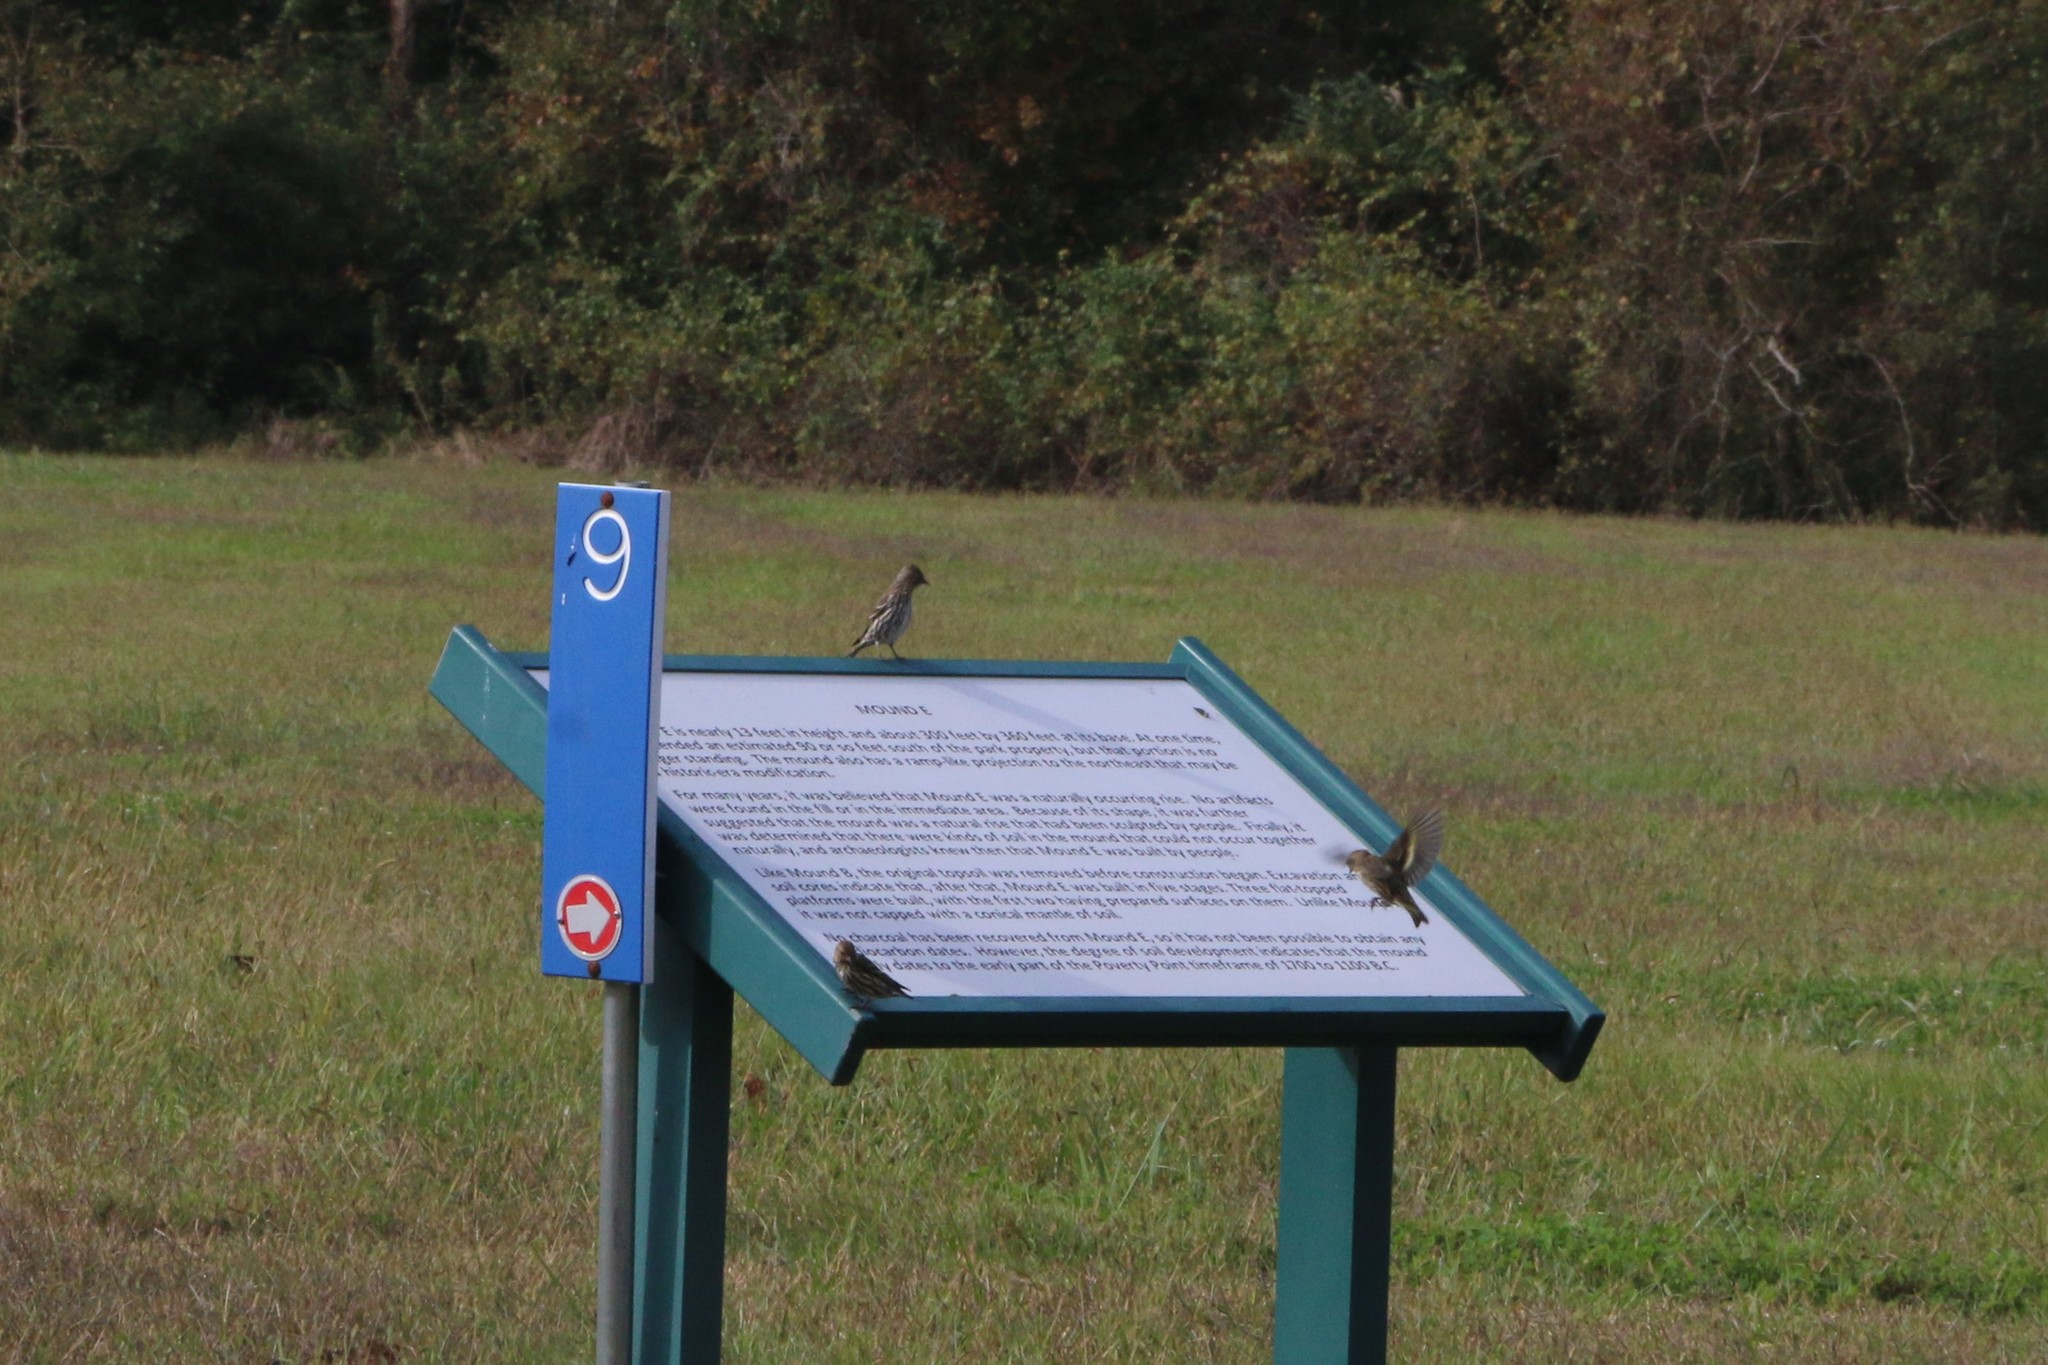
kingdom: Animalia
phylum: Chordata
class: Aves
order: Passeriformes
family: Fringillidae
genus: Spinus
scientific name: Spinus pinus
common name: Pine siskin
